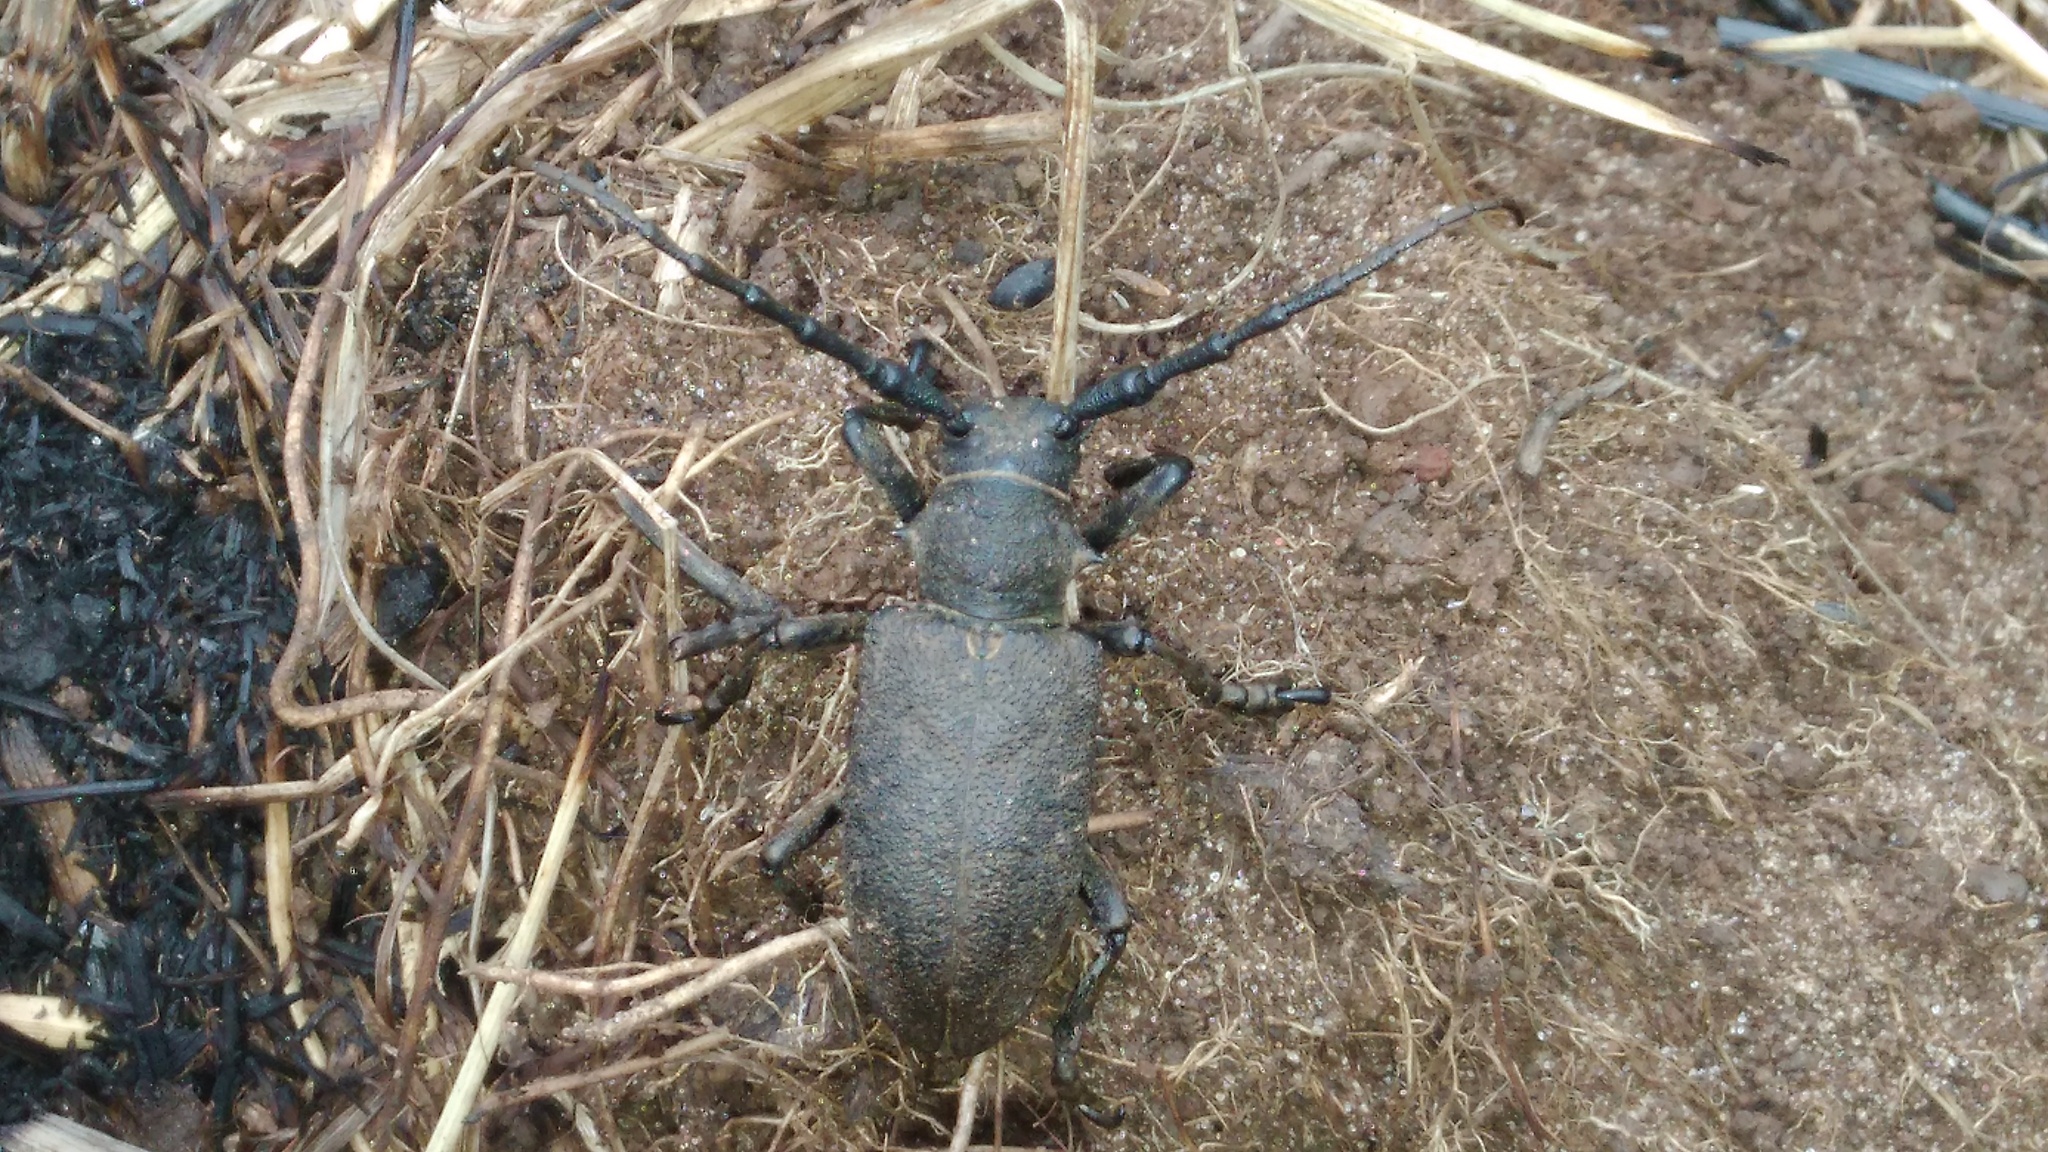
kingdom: Animalia
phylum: Arthropoda
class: Insecta
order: Coleoptera
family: Cerambycidae
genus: Lamia
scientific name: Lamia textor
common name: Weaver beetle
